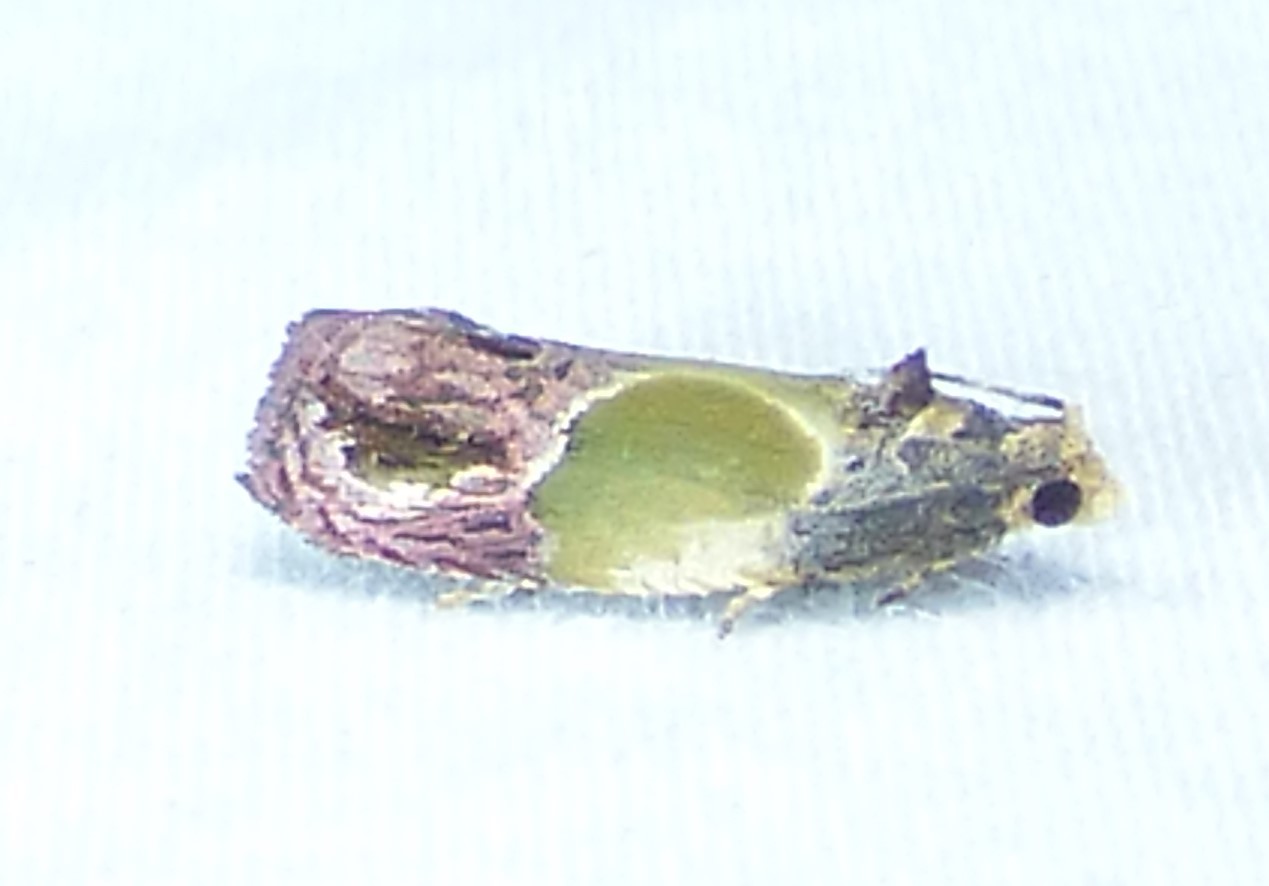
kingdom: Animalia
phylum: Arthropoda
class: Insecta
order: Lepidoptera
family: Tortricidae
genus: Eumarozia
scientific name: Eumarozia malachitana
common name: Sculptured moth
